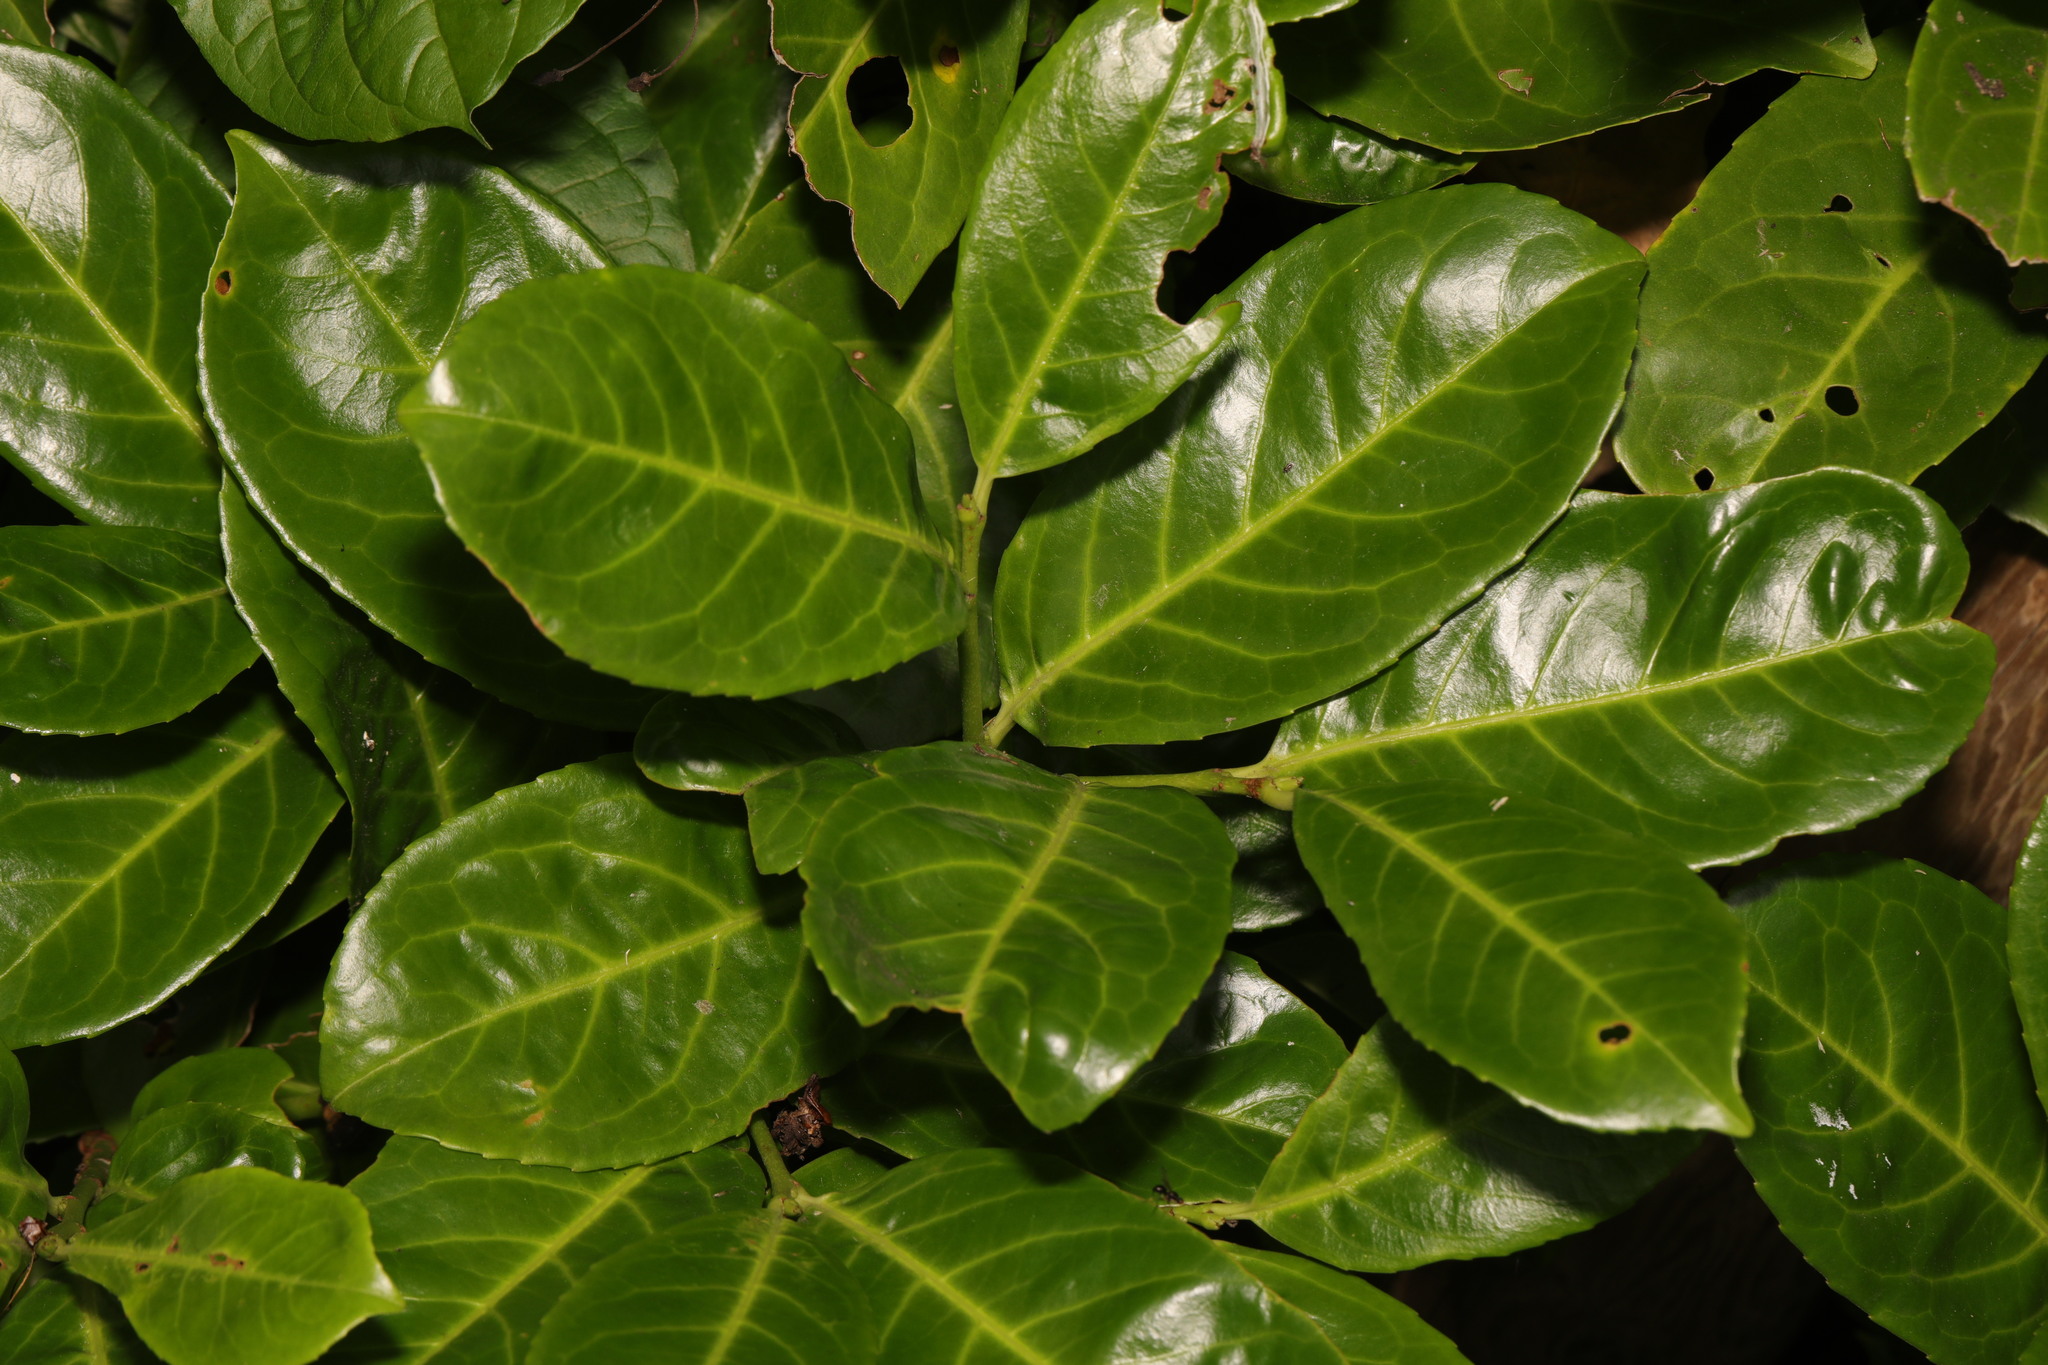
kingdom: Plantae
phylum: Tracheophyta
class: Magnoliopsida
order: Rosales
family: Rosaceae
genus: Prunus
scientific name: Prunus laurocerasus
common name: Cherry laurel
